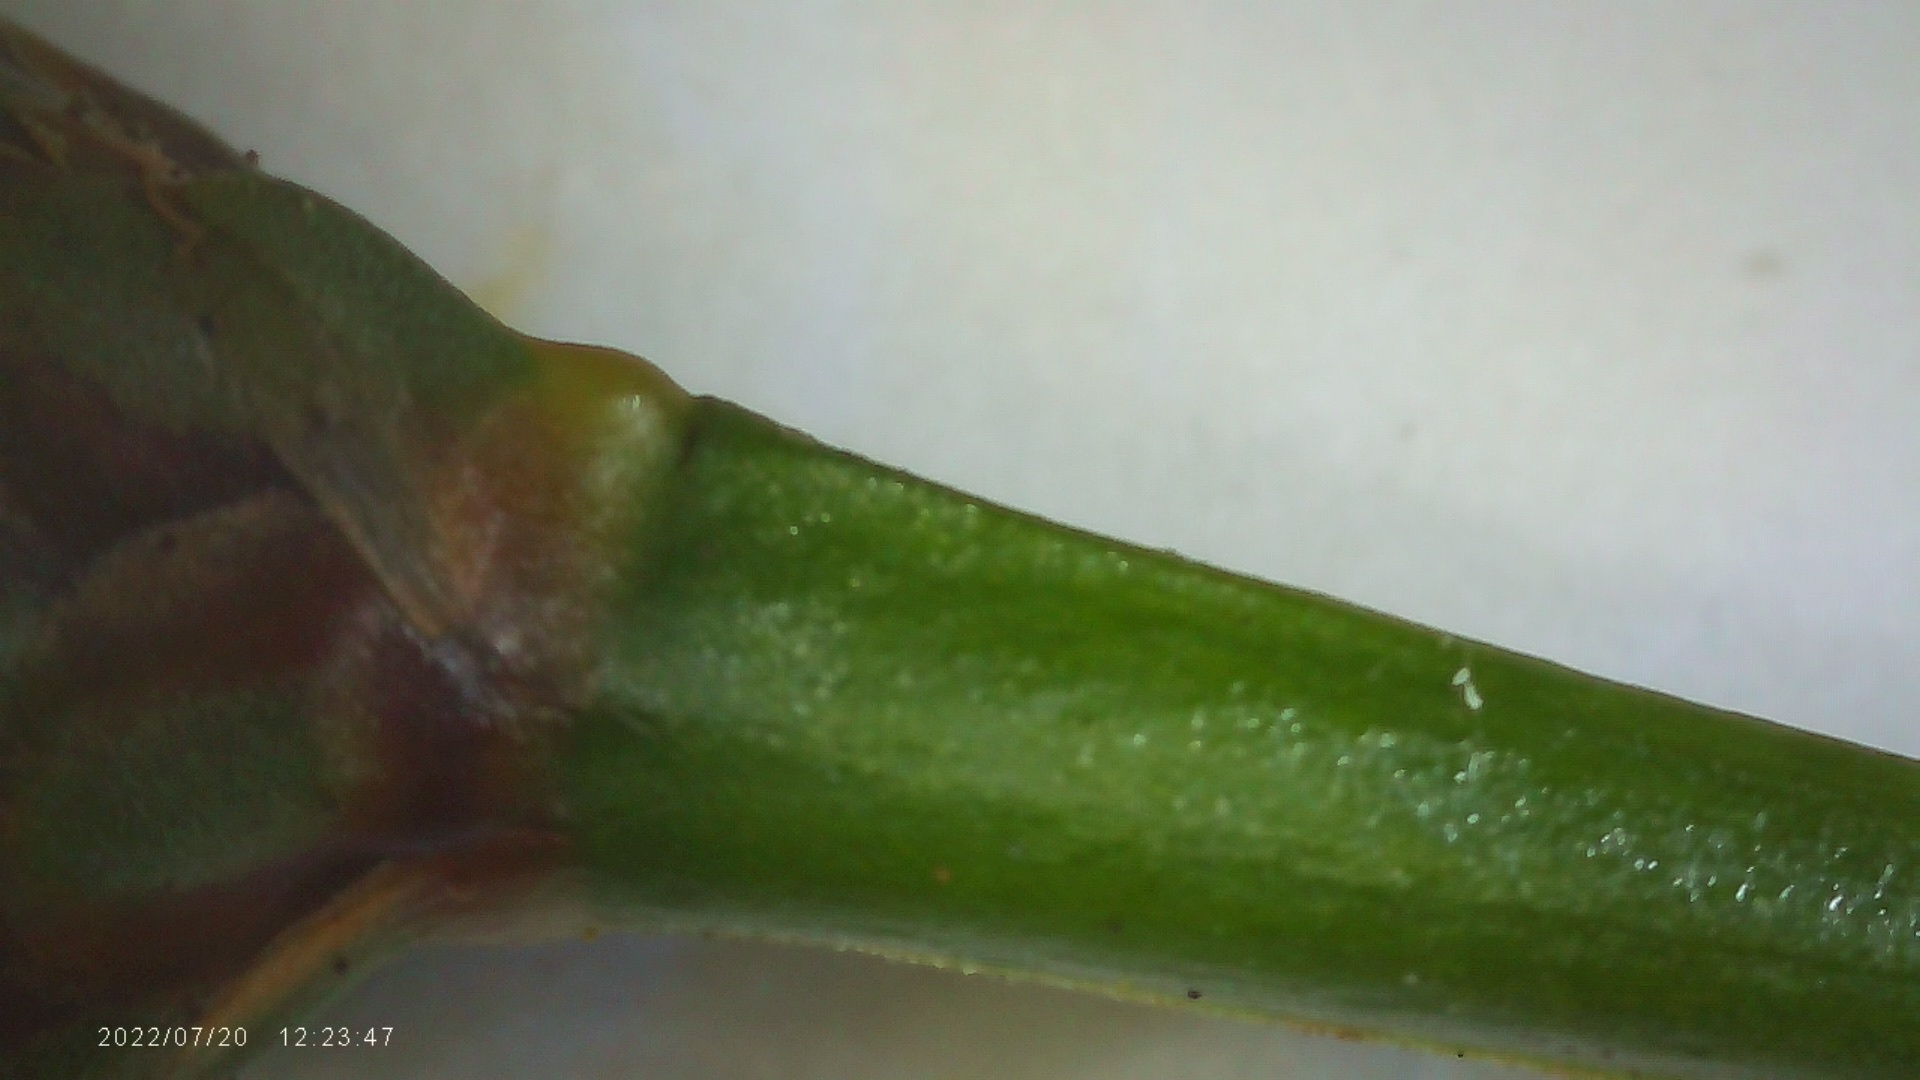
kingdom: Plantae
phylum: Tracheophyta
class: Liliopsida
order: Poales
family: Xyridaceae
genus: Xyris
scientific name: Xyris difformis
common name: Bog yellow-eyed-grass
